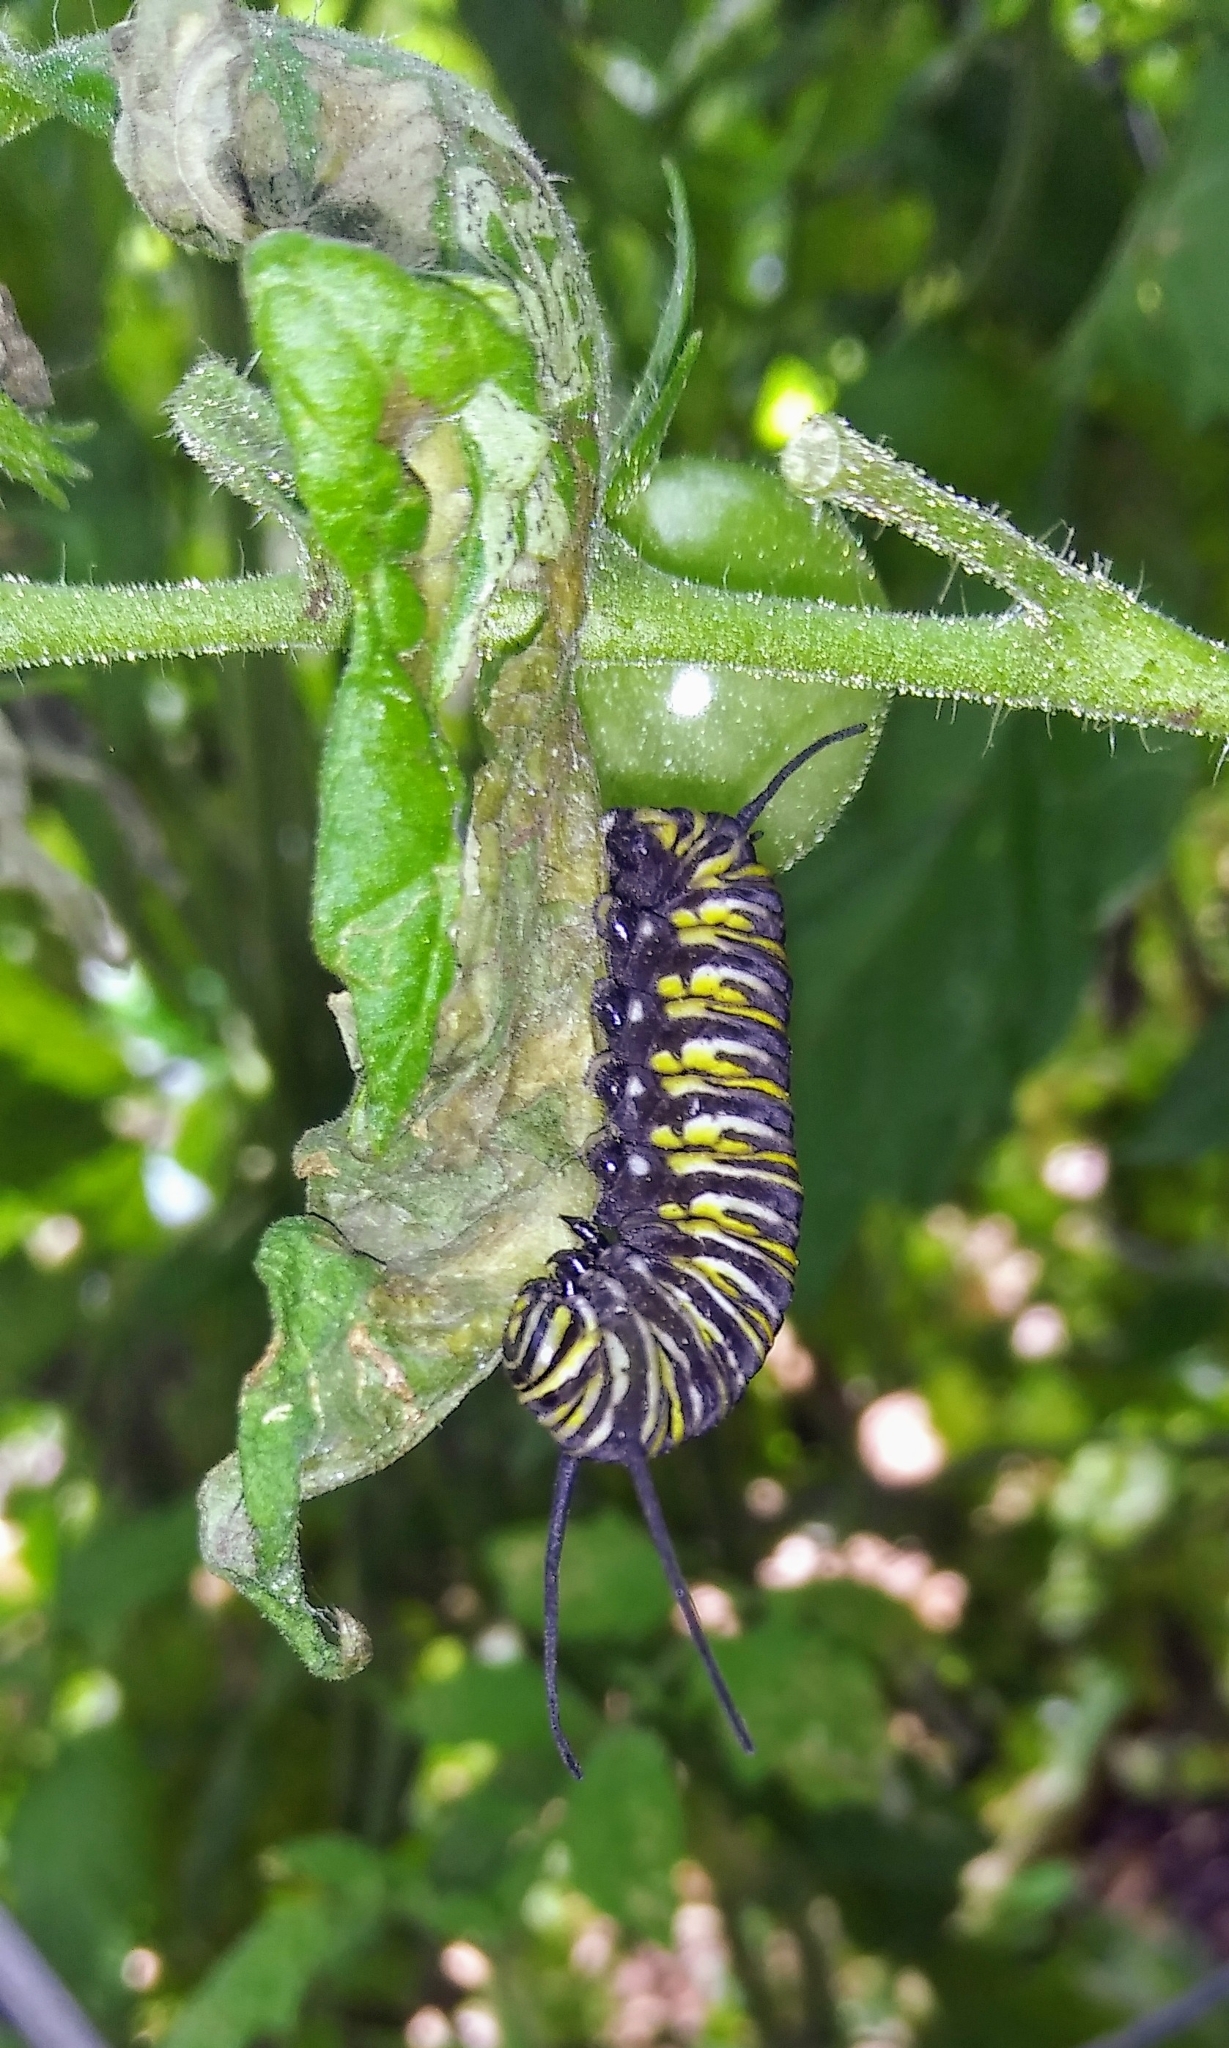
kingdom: Animalia
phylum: Arthropoda
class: Insecta
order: Lepidoptera
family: Nymphalidae
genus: Danaus
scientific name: Danaus plexippus
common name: Monarch
